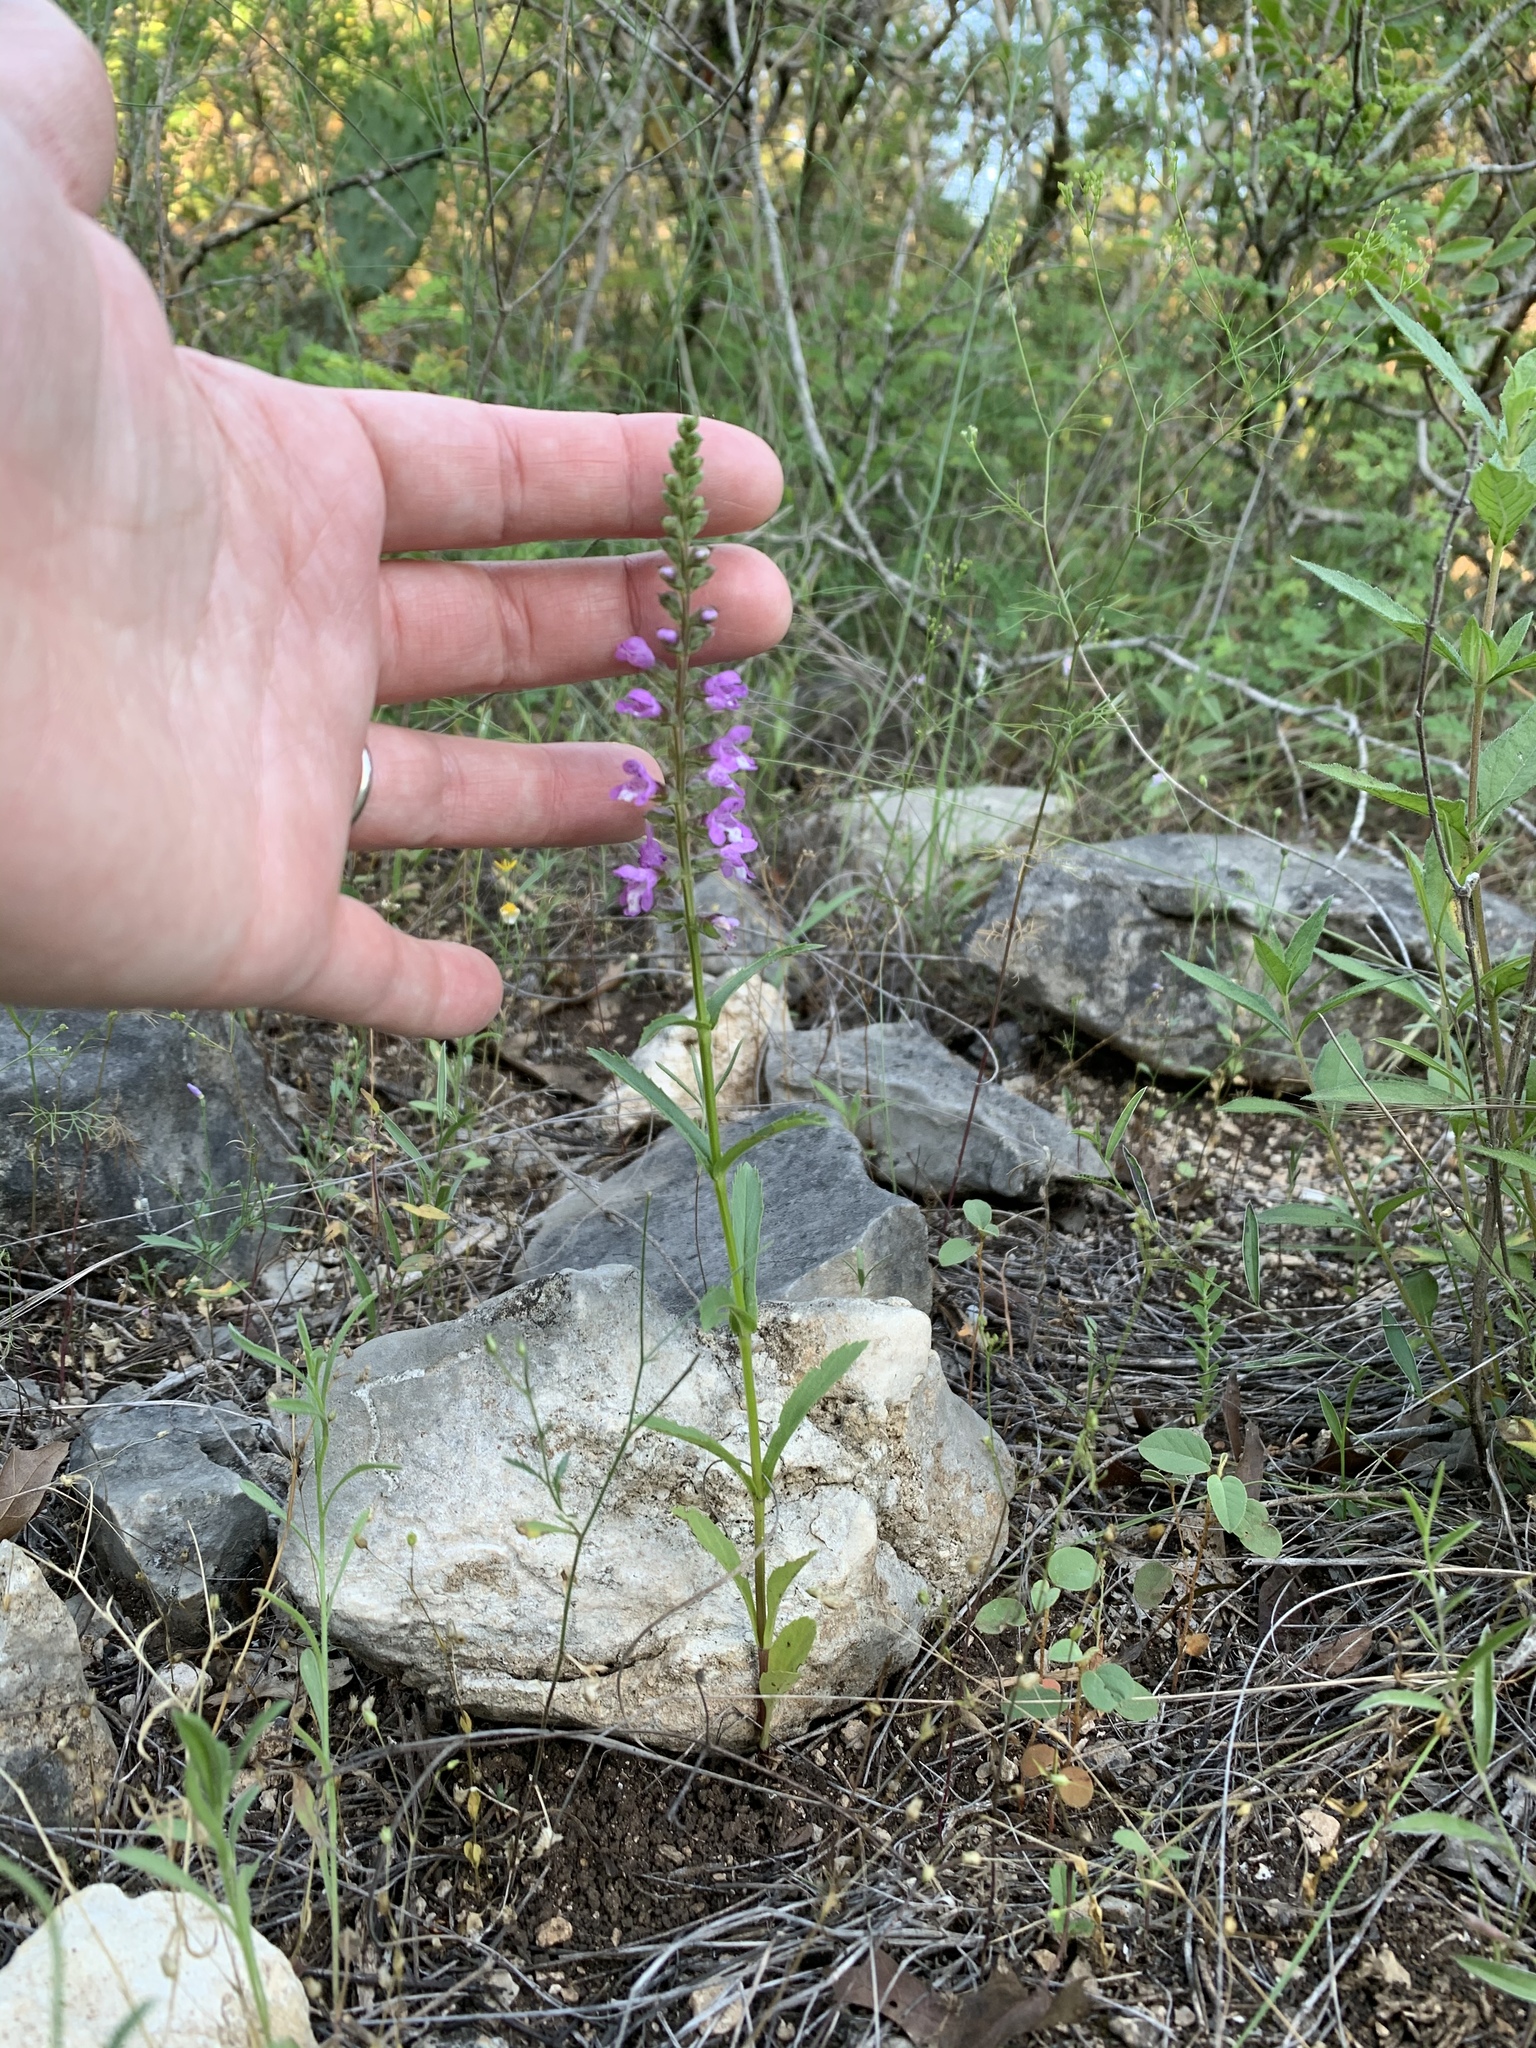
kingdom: Plantae
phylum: Tracheophyta
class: Magnoliopsida
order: Lamiales
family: Lamiaceae
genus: Warnockia
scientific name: Warnockia scutellarioides
